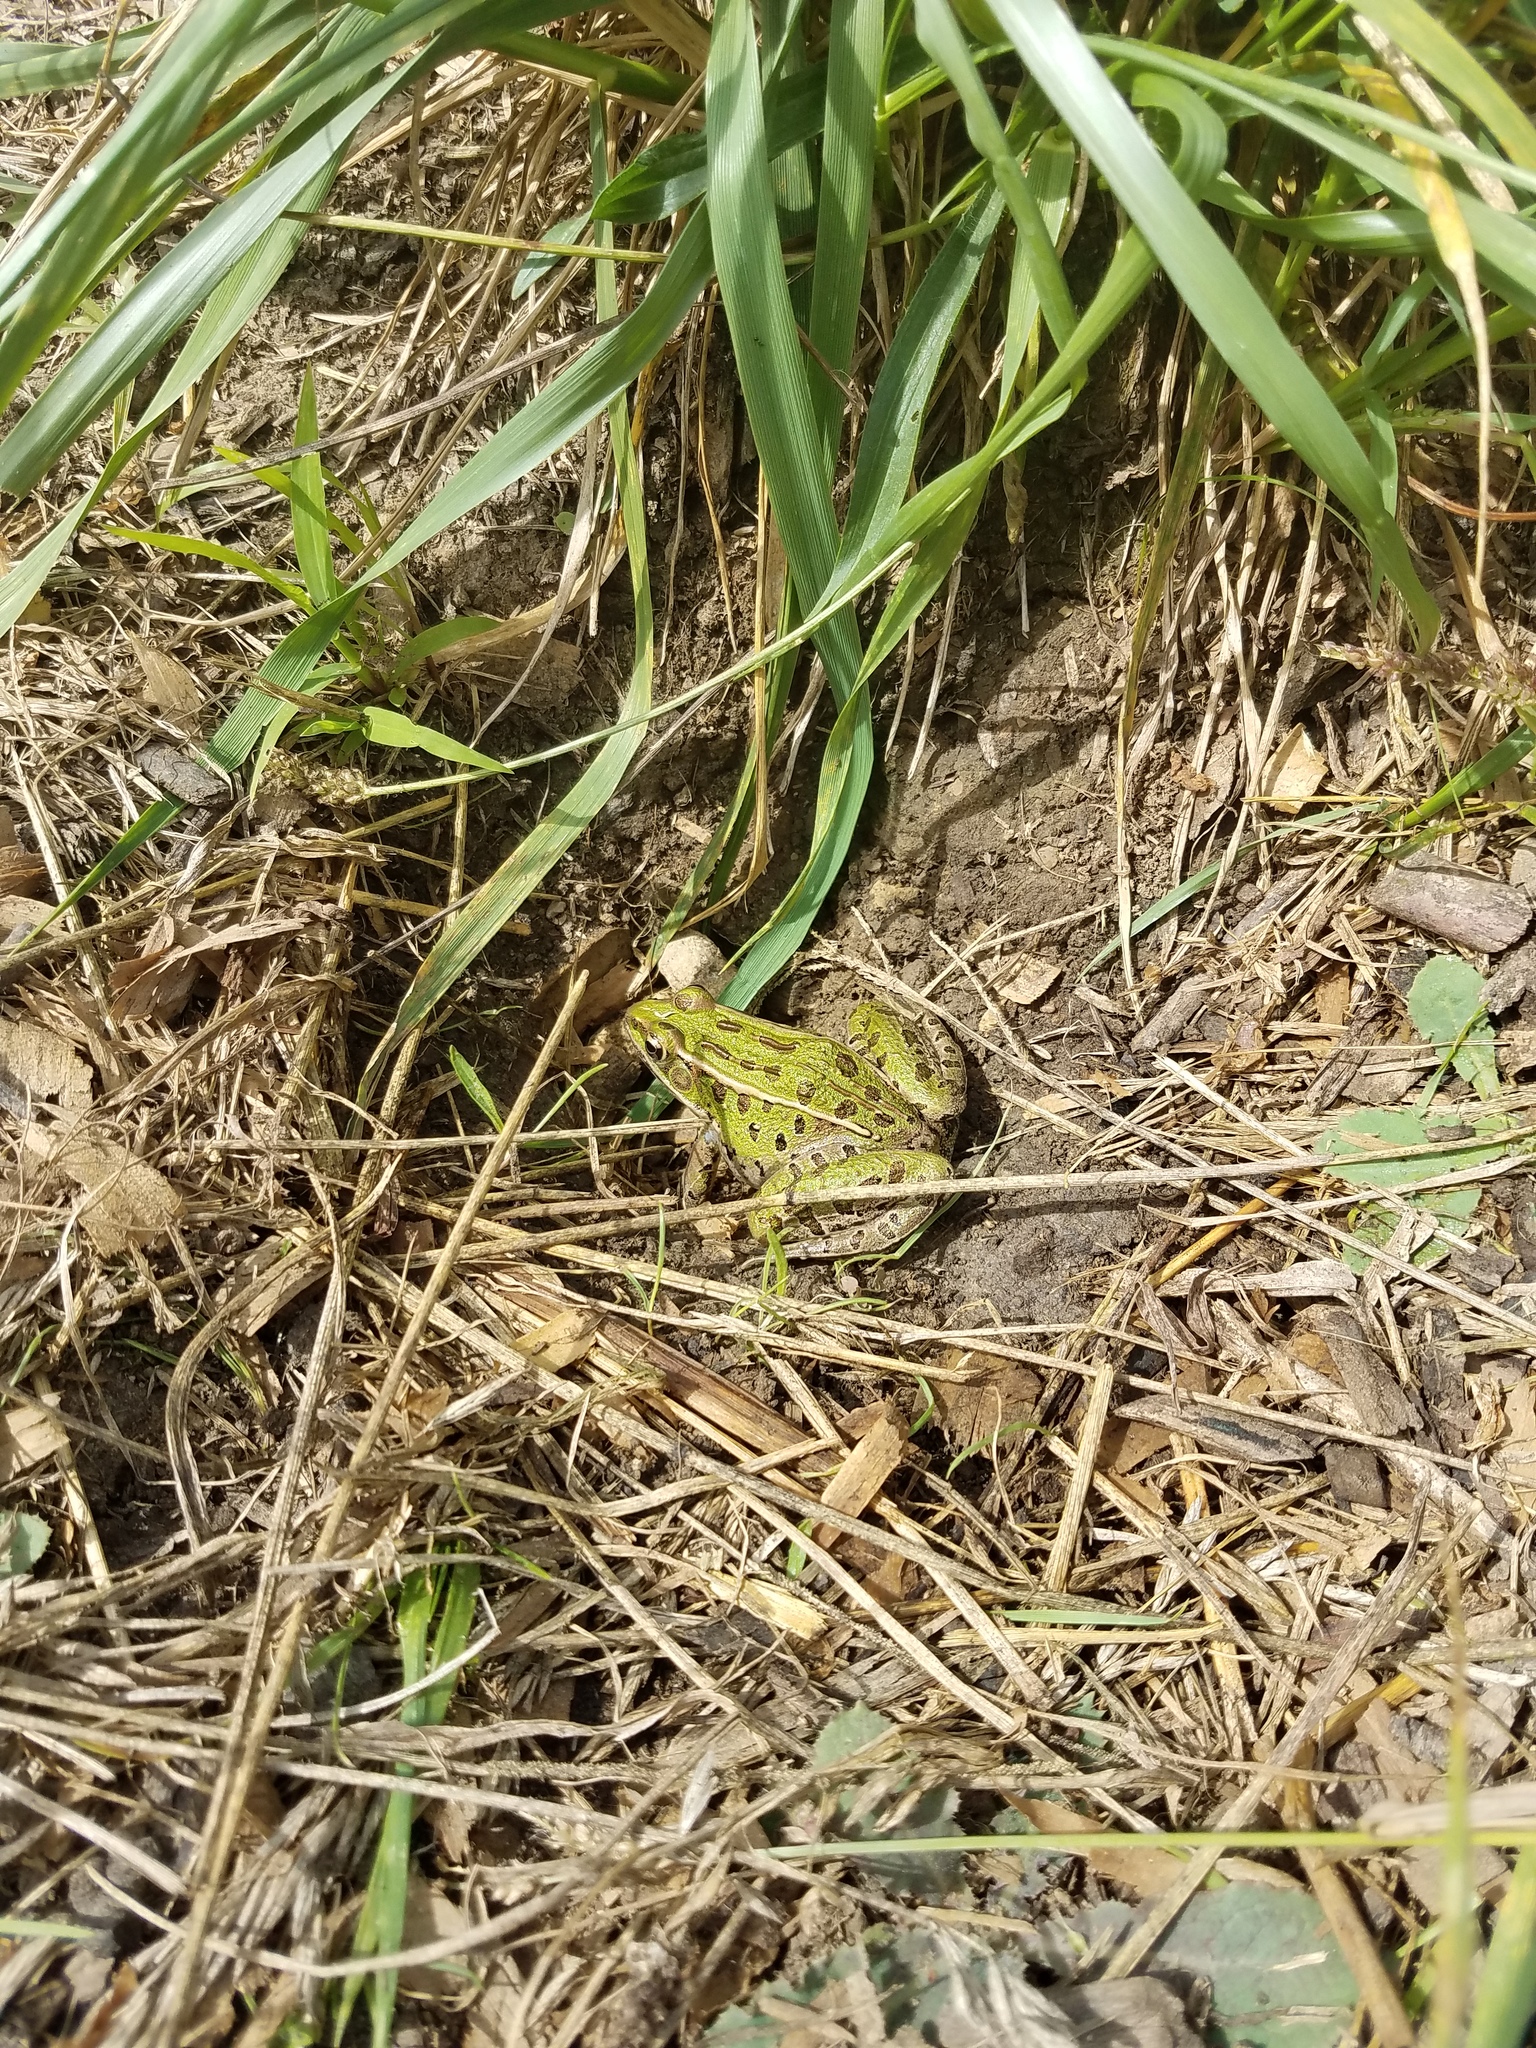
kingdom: Animalia
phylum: Chordata
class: Amphibia
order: Anura
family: Ranidae
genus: Lithobates
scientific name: Lithobates pipiens
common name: Northern leopard frog
